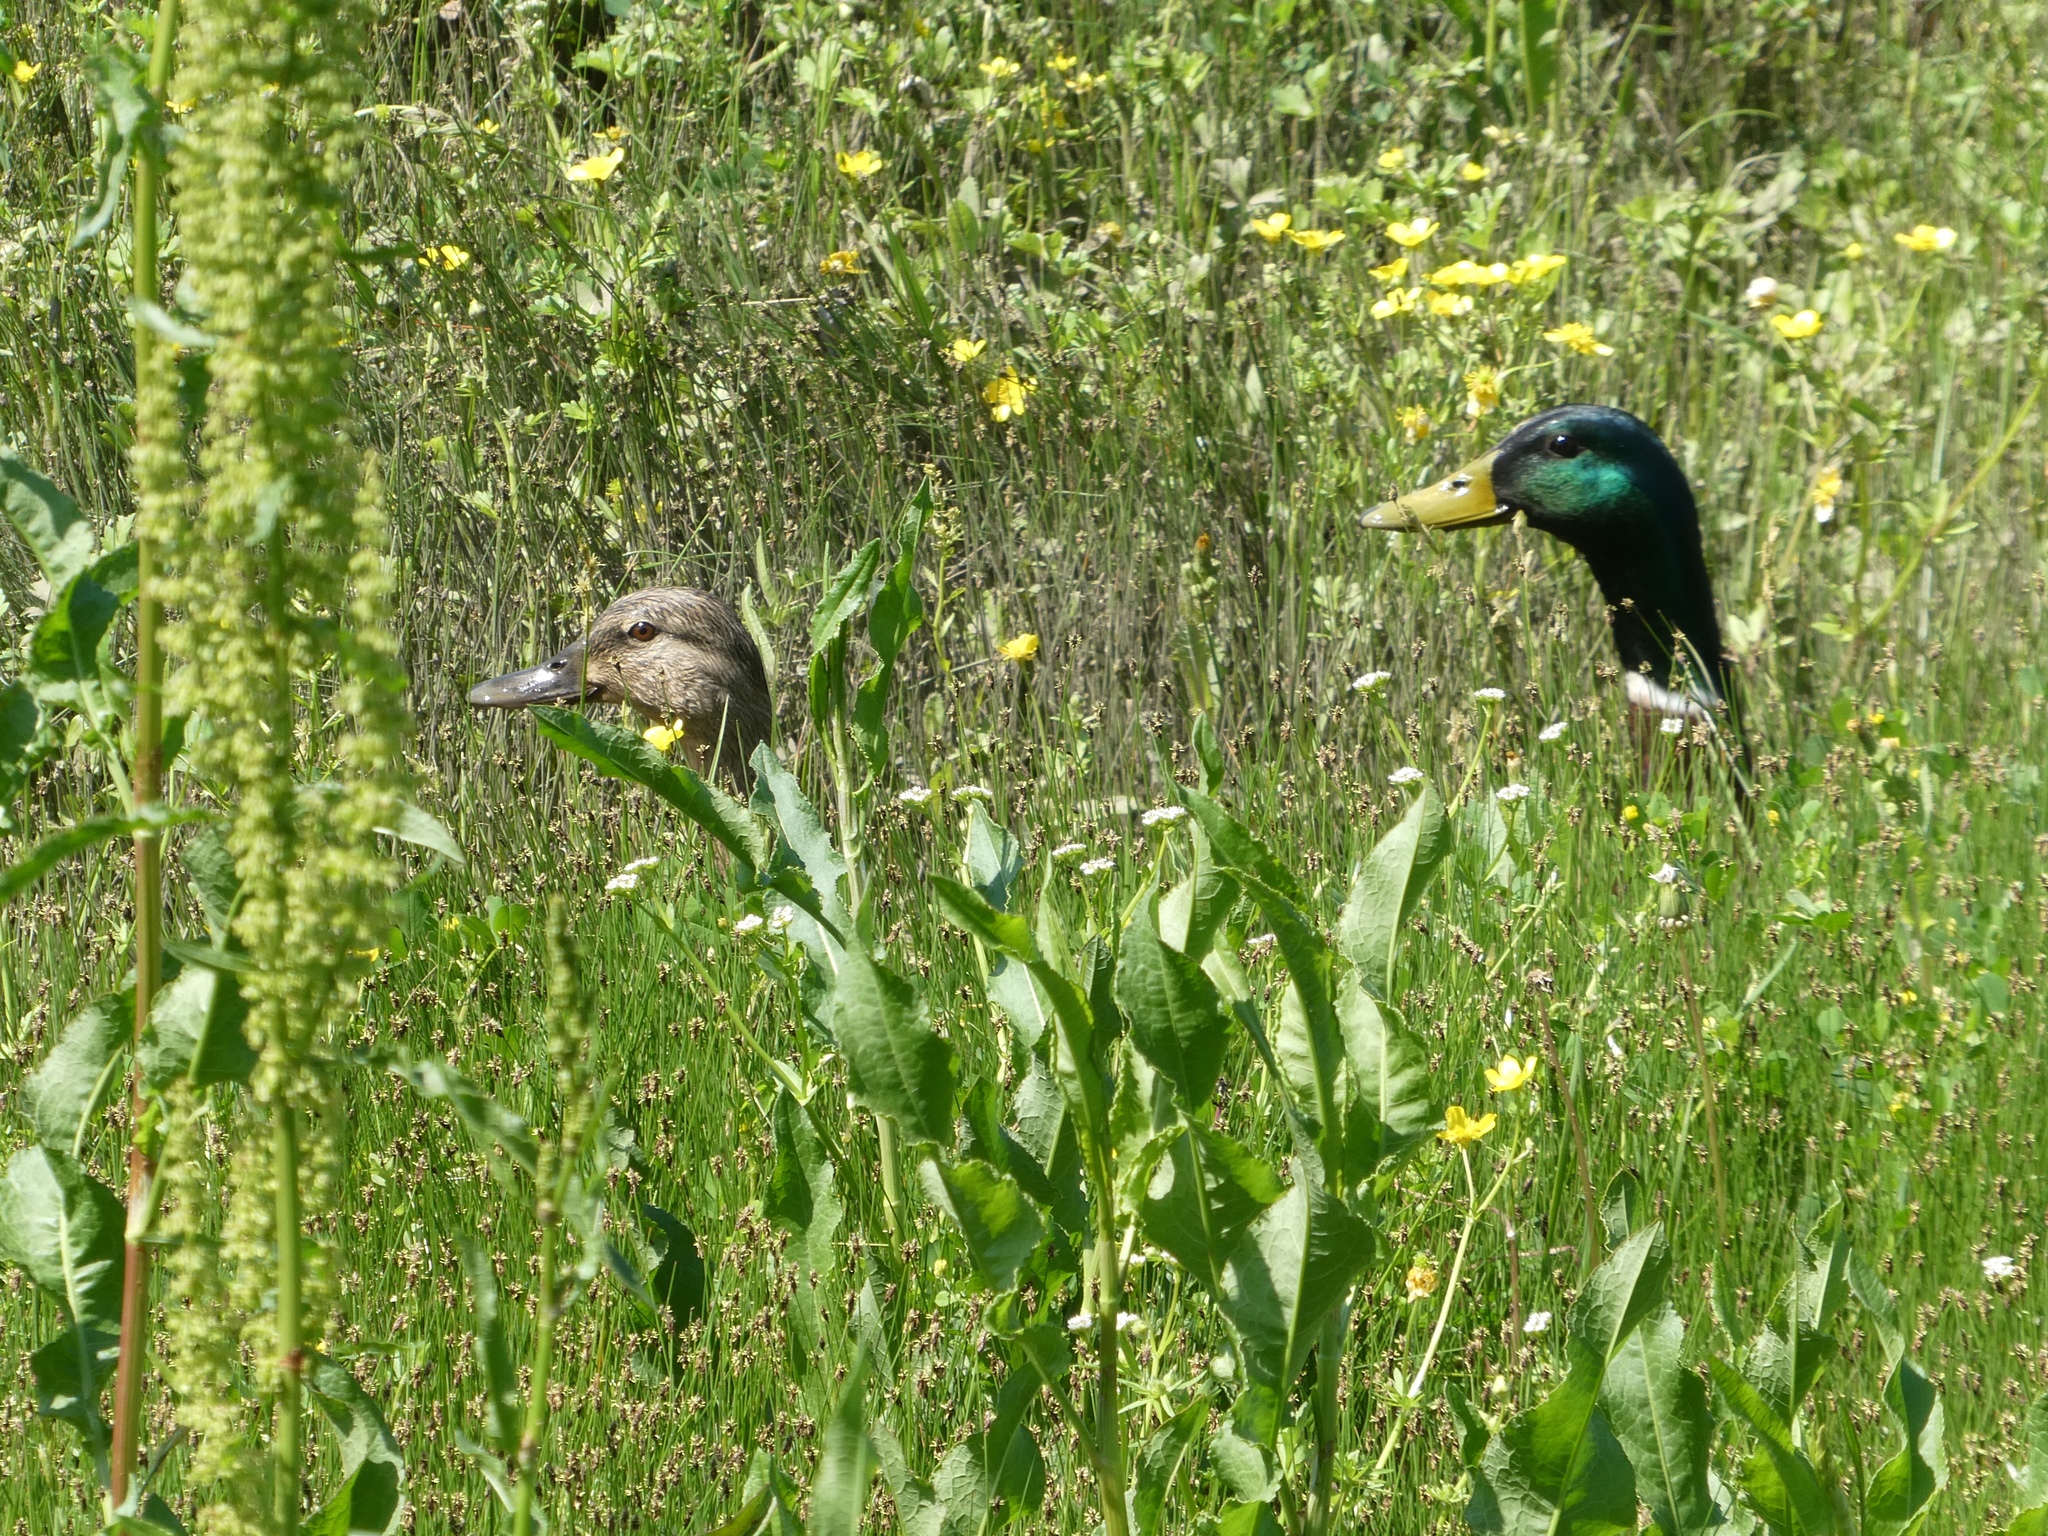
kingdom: Animalia
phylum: Chordata
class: Aves
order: Anseriformes
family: Anatidae
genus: Anas
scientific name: Anas platyrhynchos
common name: Mallard
